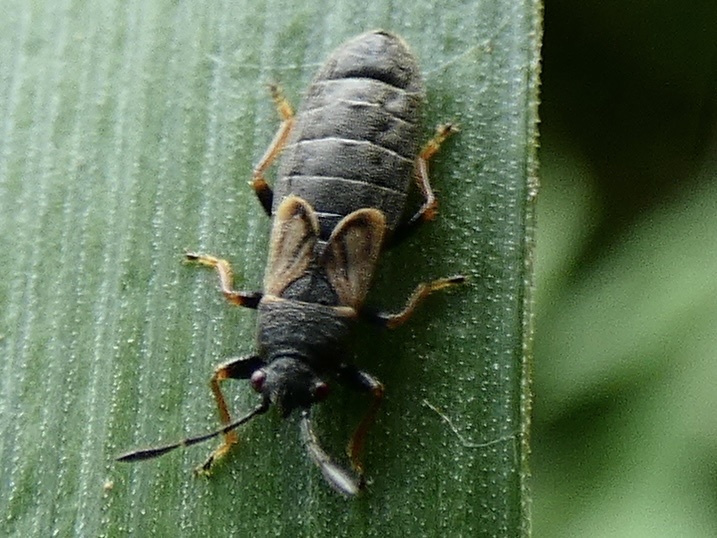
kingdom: Animalia
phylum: Arthropoda
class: Insecta
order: Hemiptera
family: Blissidae
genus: Ischnodemus
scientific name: Ischnodemus sabuleti
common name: European cinchbug
